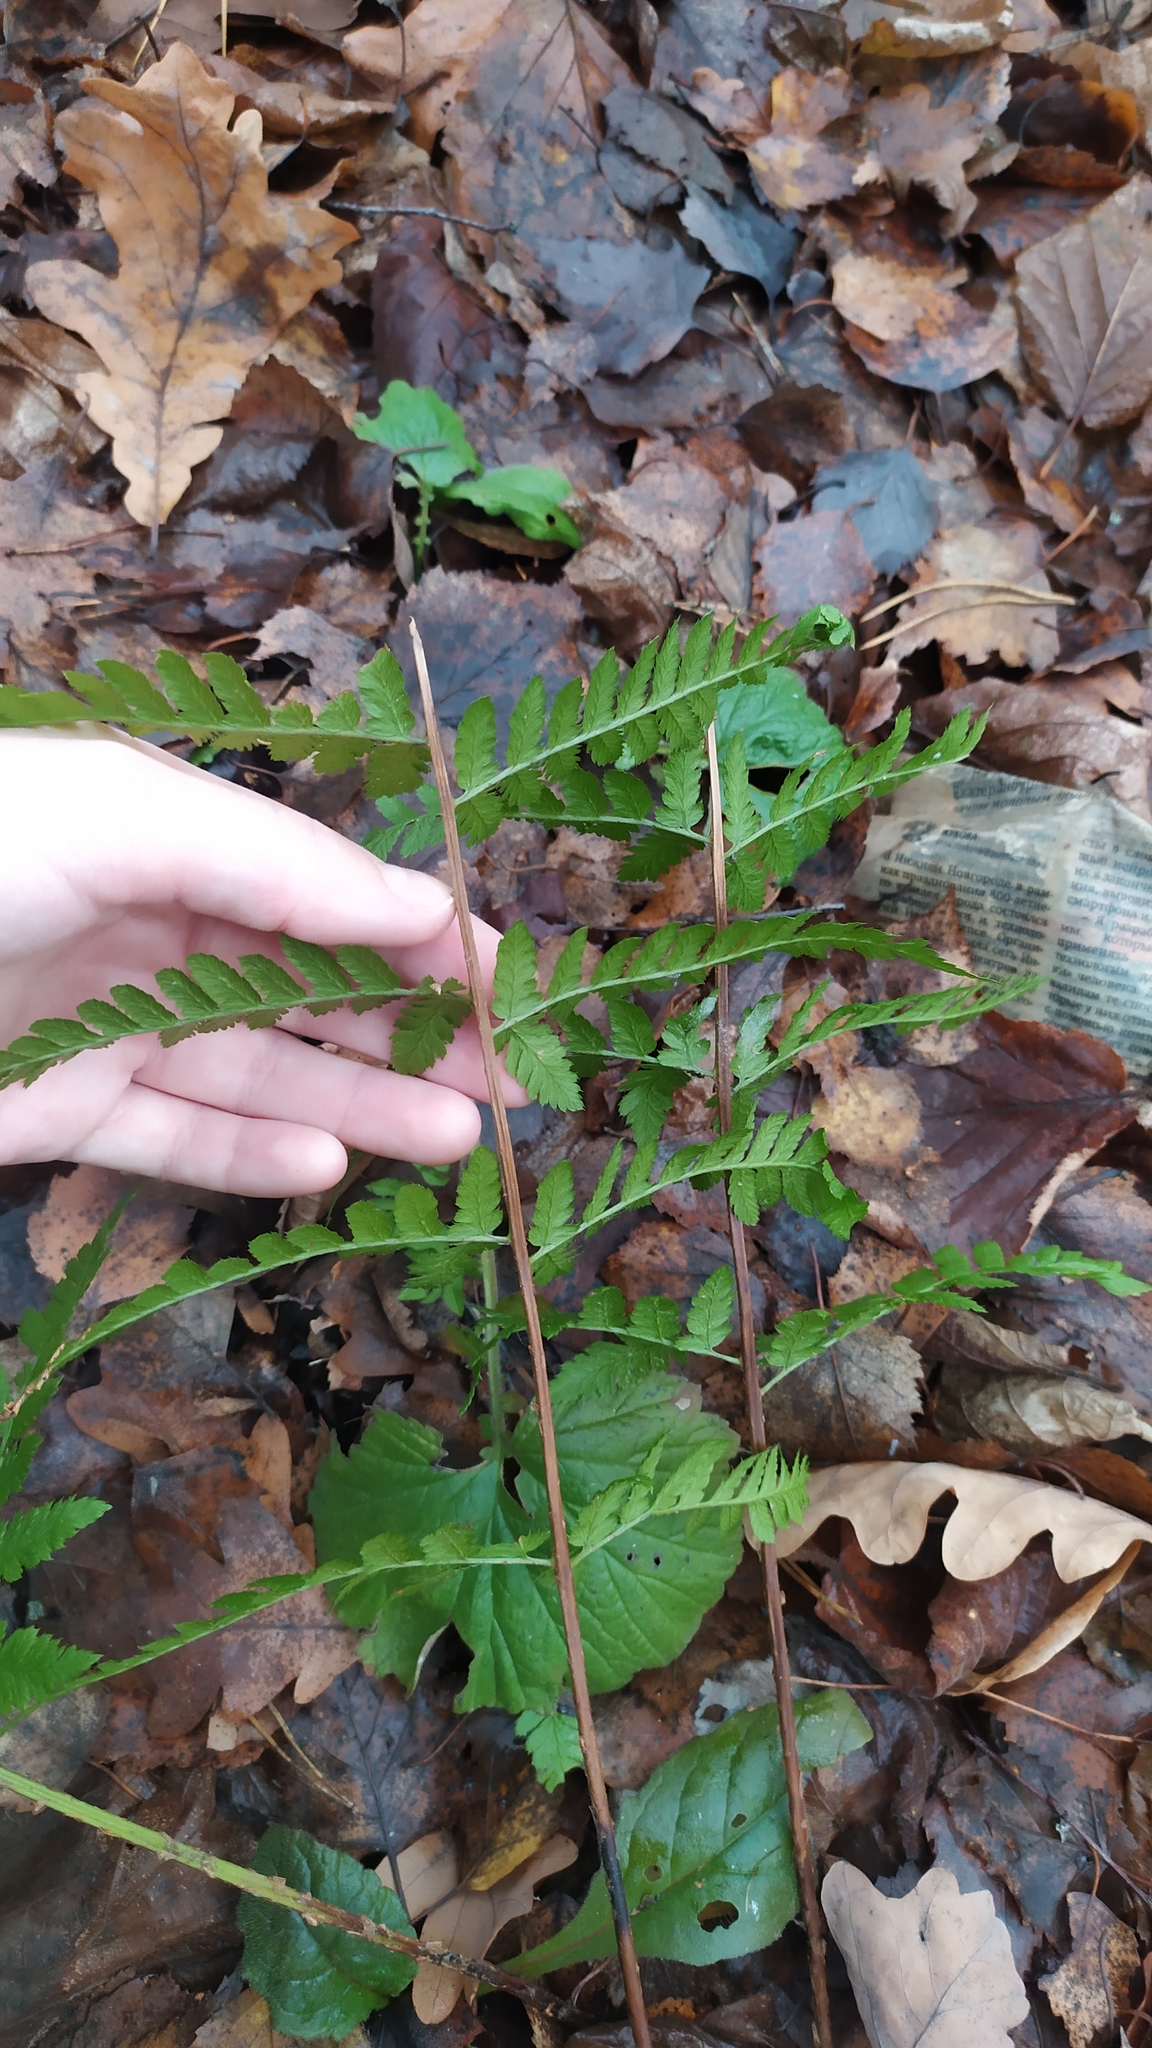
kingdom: Plantae
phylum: Tracheophyta
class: Polypodiopsida
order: Polypodiales
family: Dryopteridaceae
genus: Dryopteris
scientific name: Dryopteris carthusiana
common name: Narrow buckler-fern
